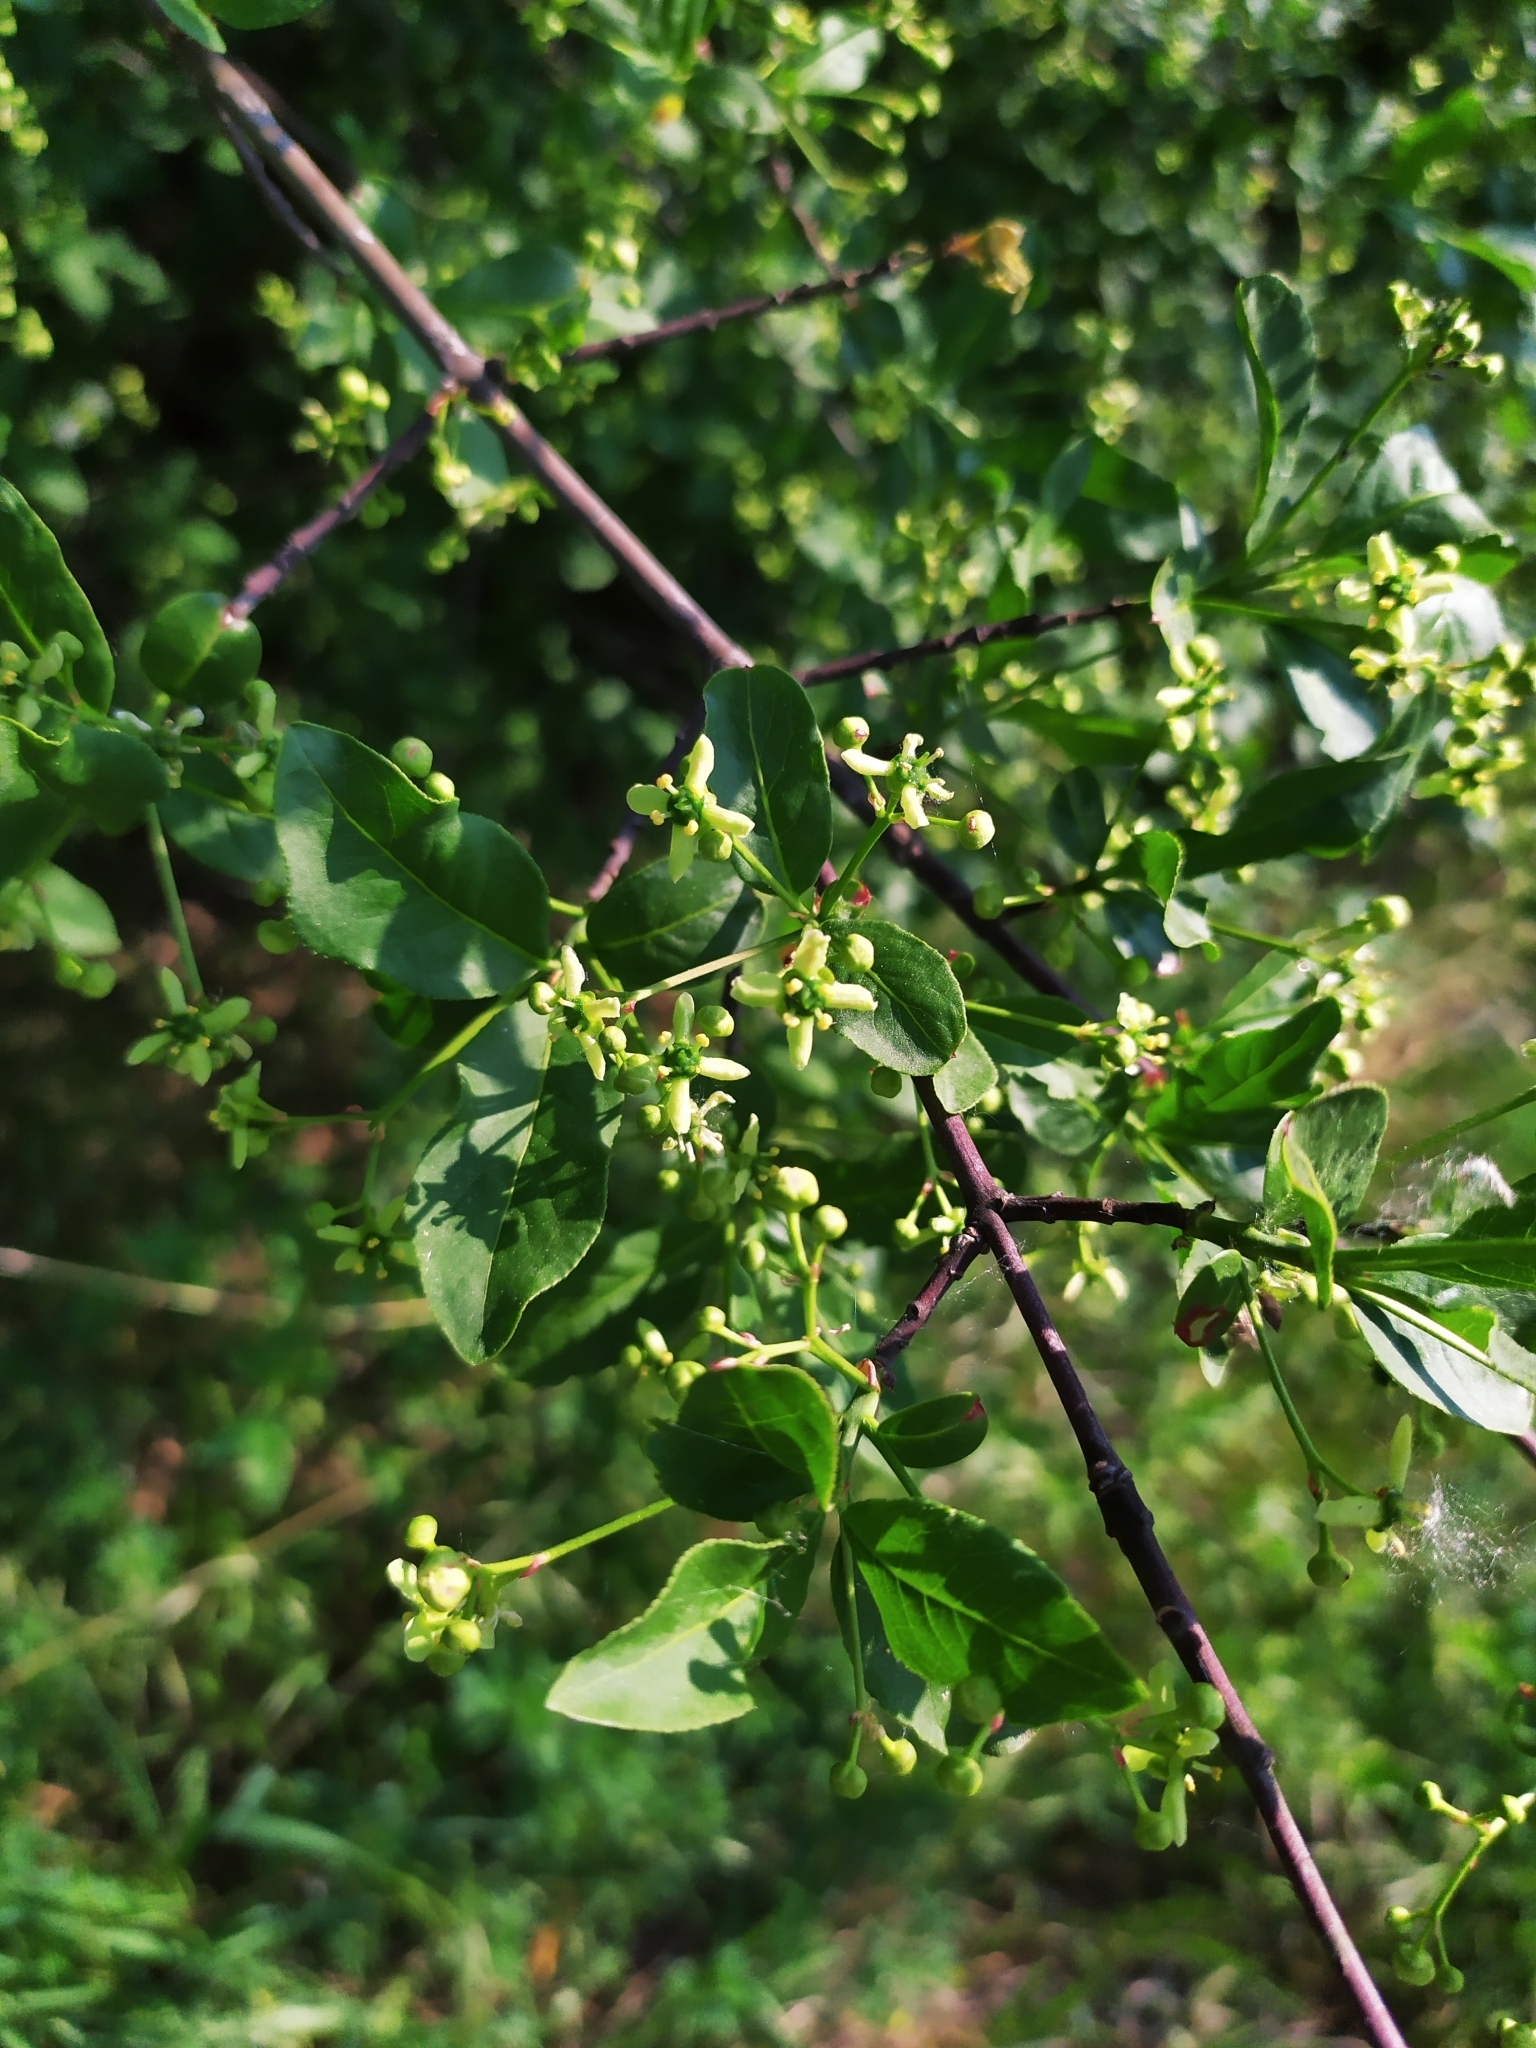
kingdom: Plantae
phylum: Tracheophyta
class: Magnoliopsida
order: Celastrales
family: Celastraceae
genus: Euonymus
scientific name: Euonymus europaeus
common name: Spindle
